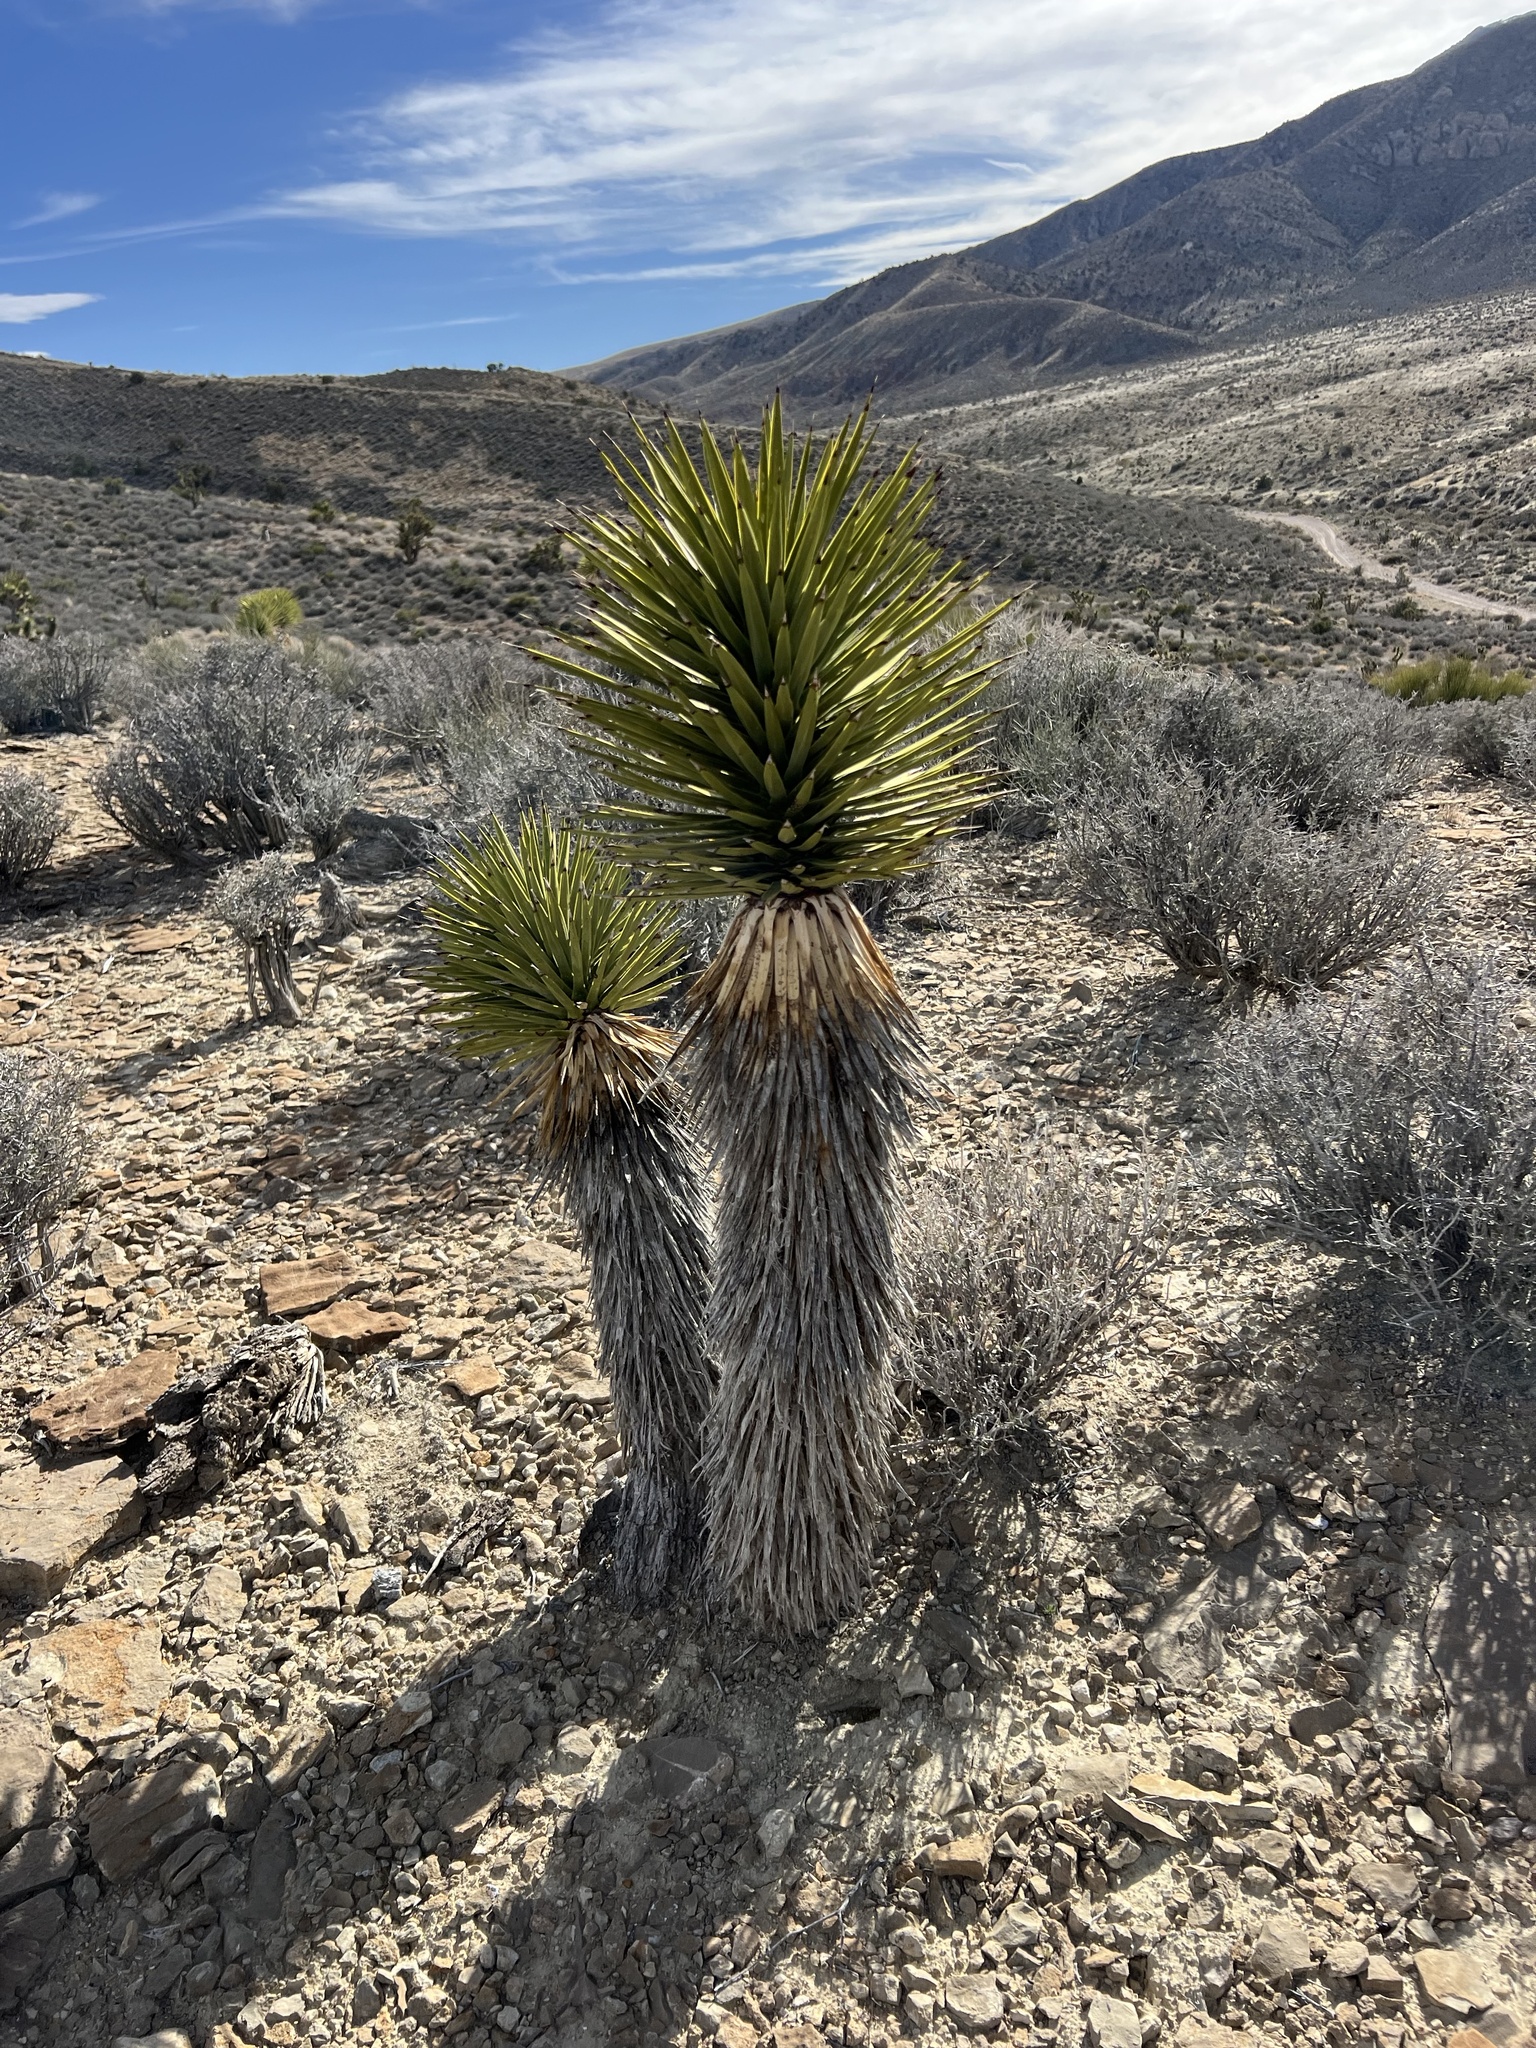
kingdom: Plantae
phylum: Tracheophyta
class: Liliopsida
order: Asparagales
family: Asparagaceae
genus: Yucca
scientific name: Yucca brevifolia
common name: Joshua tree
